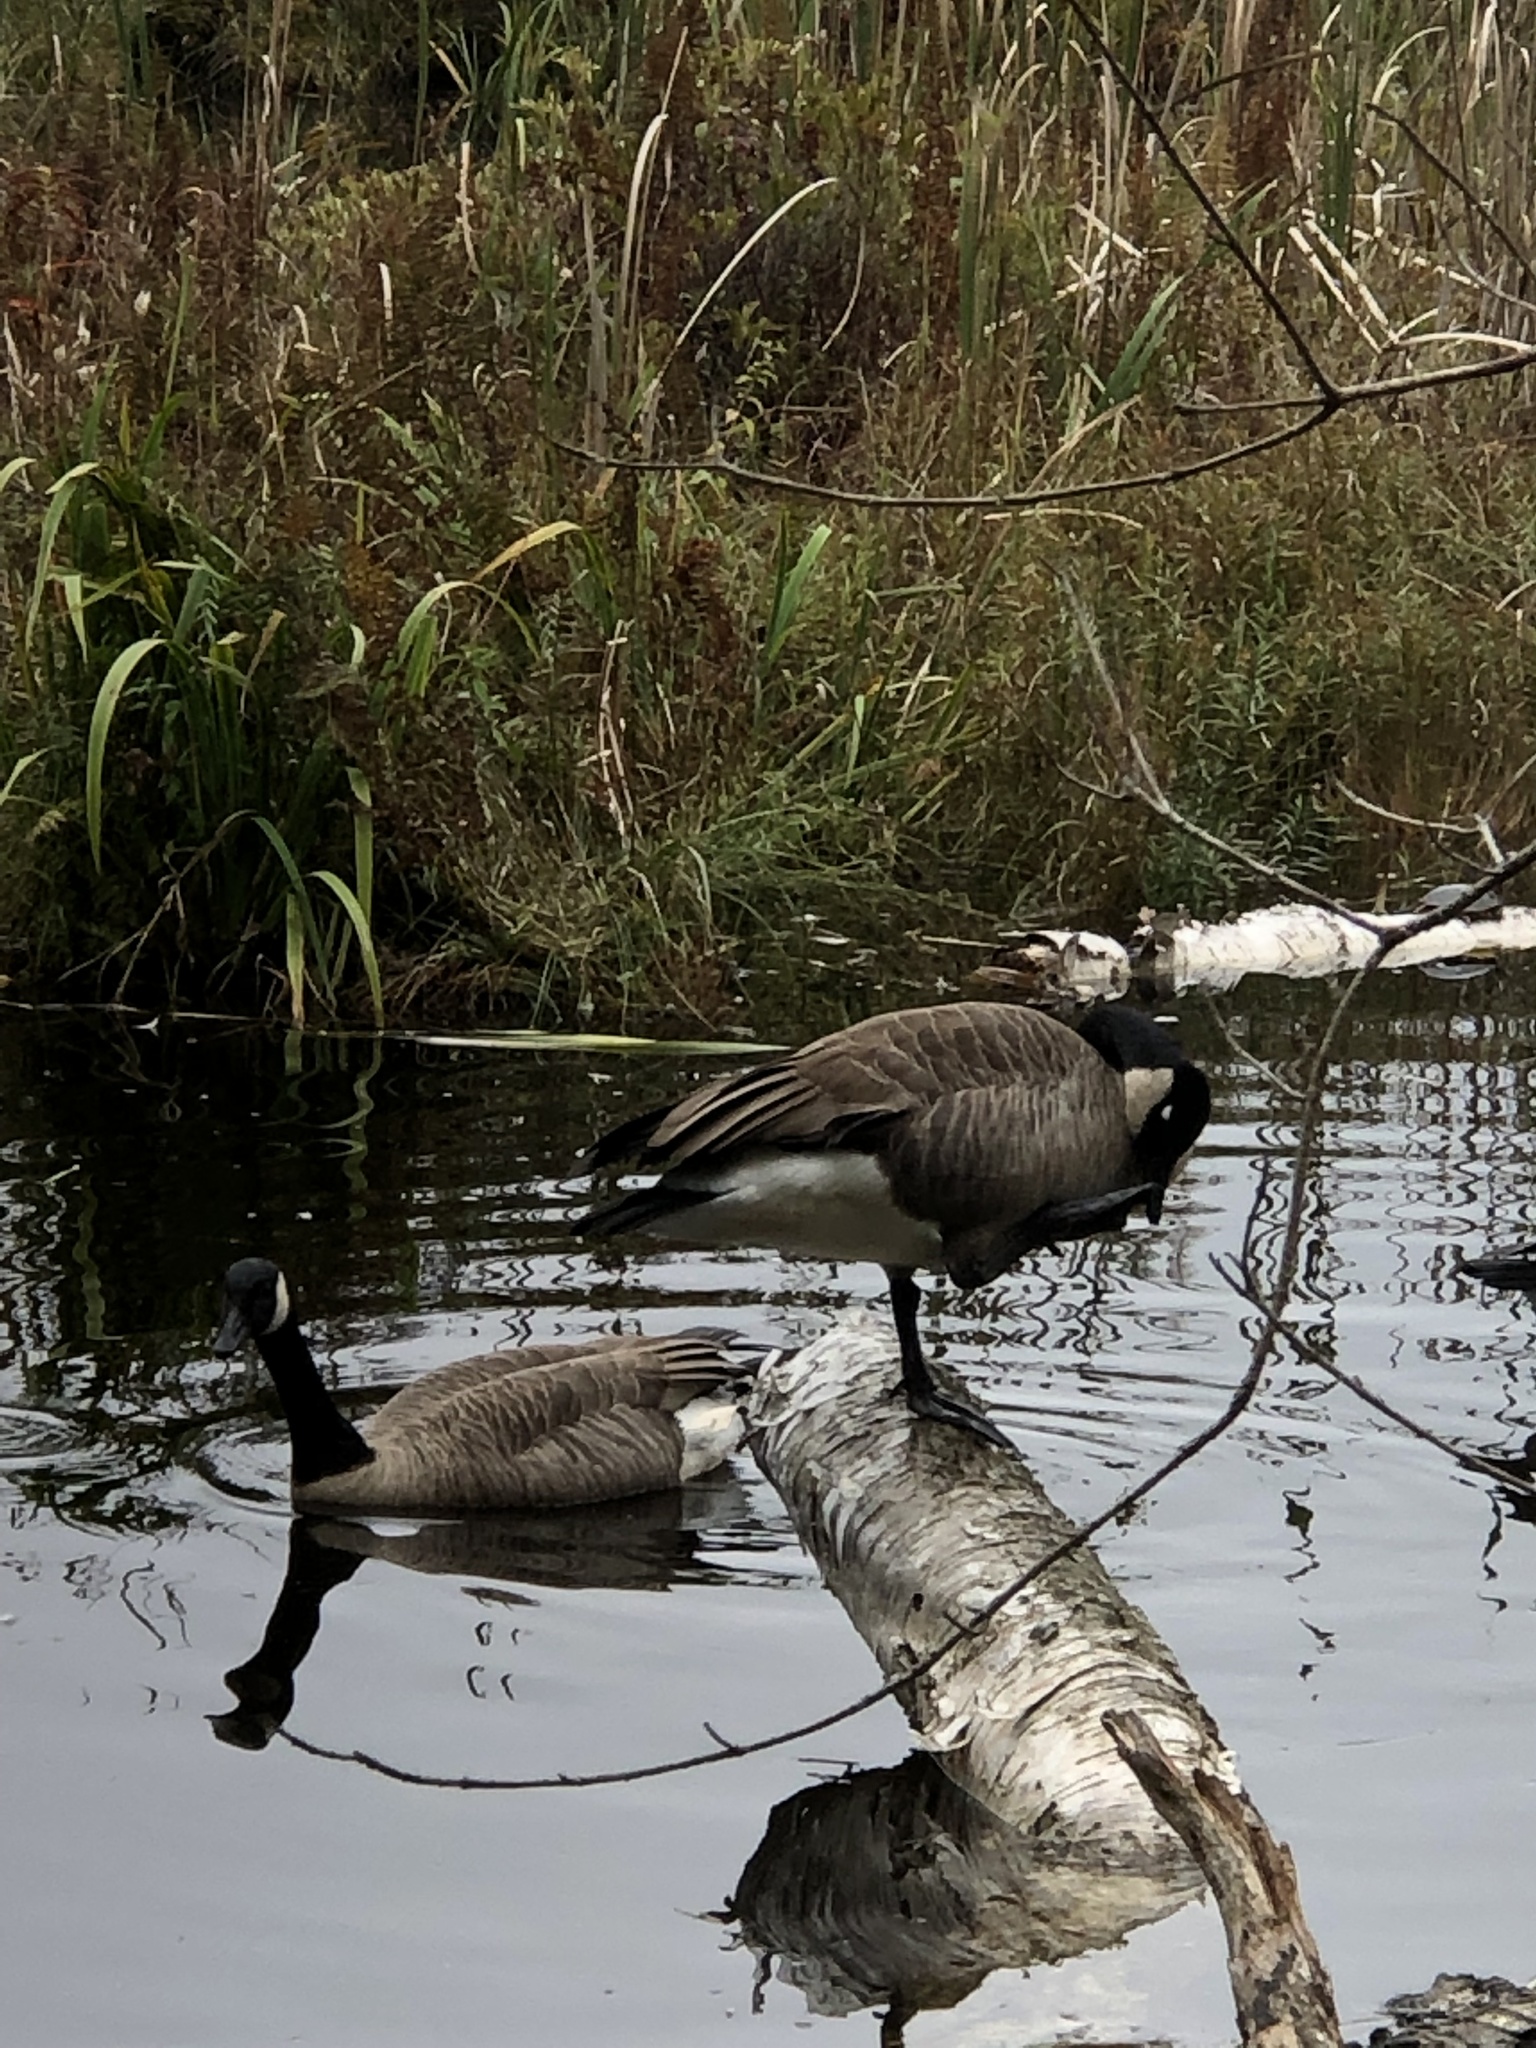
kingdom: Animalia
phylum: Chordata
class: Aves
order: Anseriformes
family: Anatidae
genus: Branta
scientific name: Branta canadensis
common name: Canada goose
